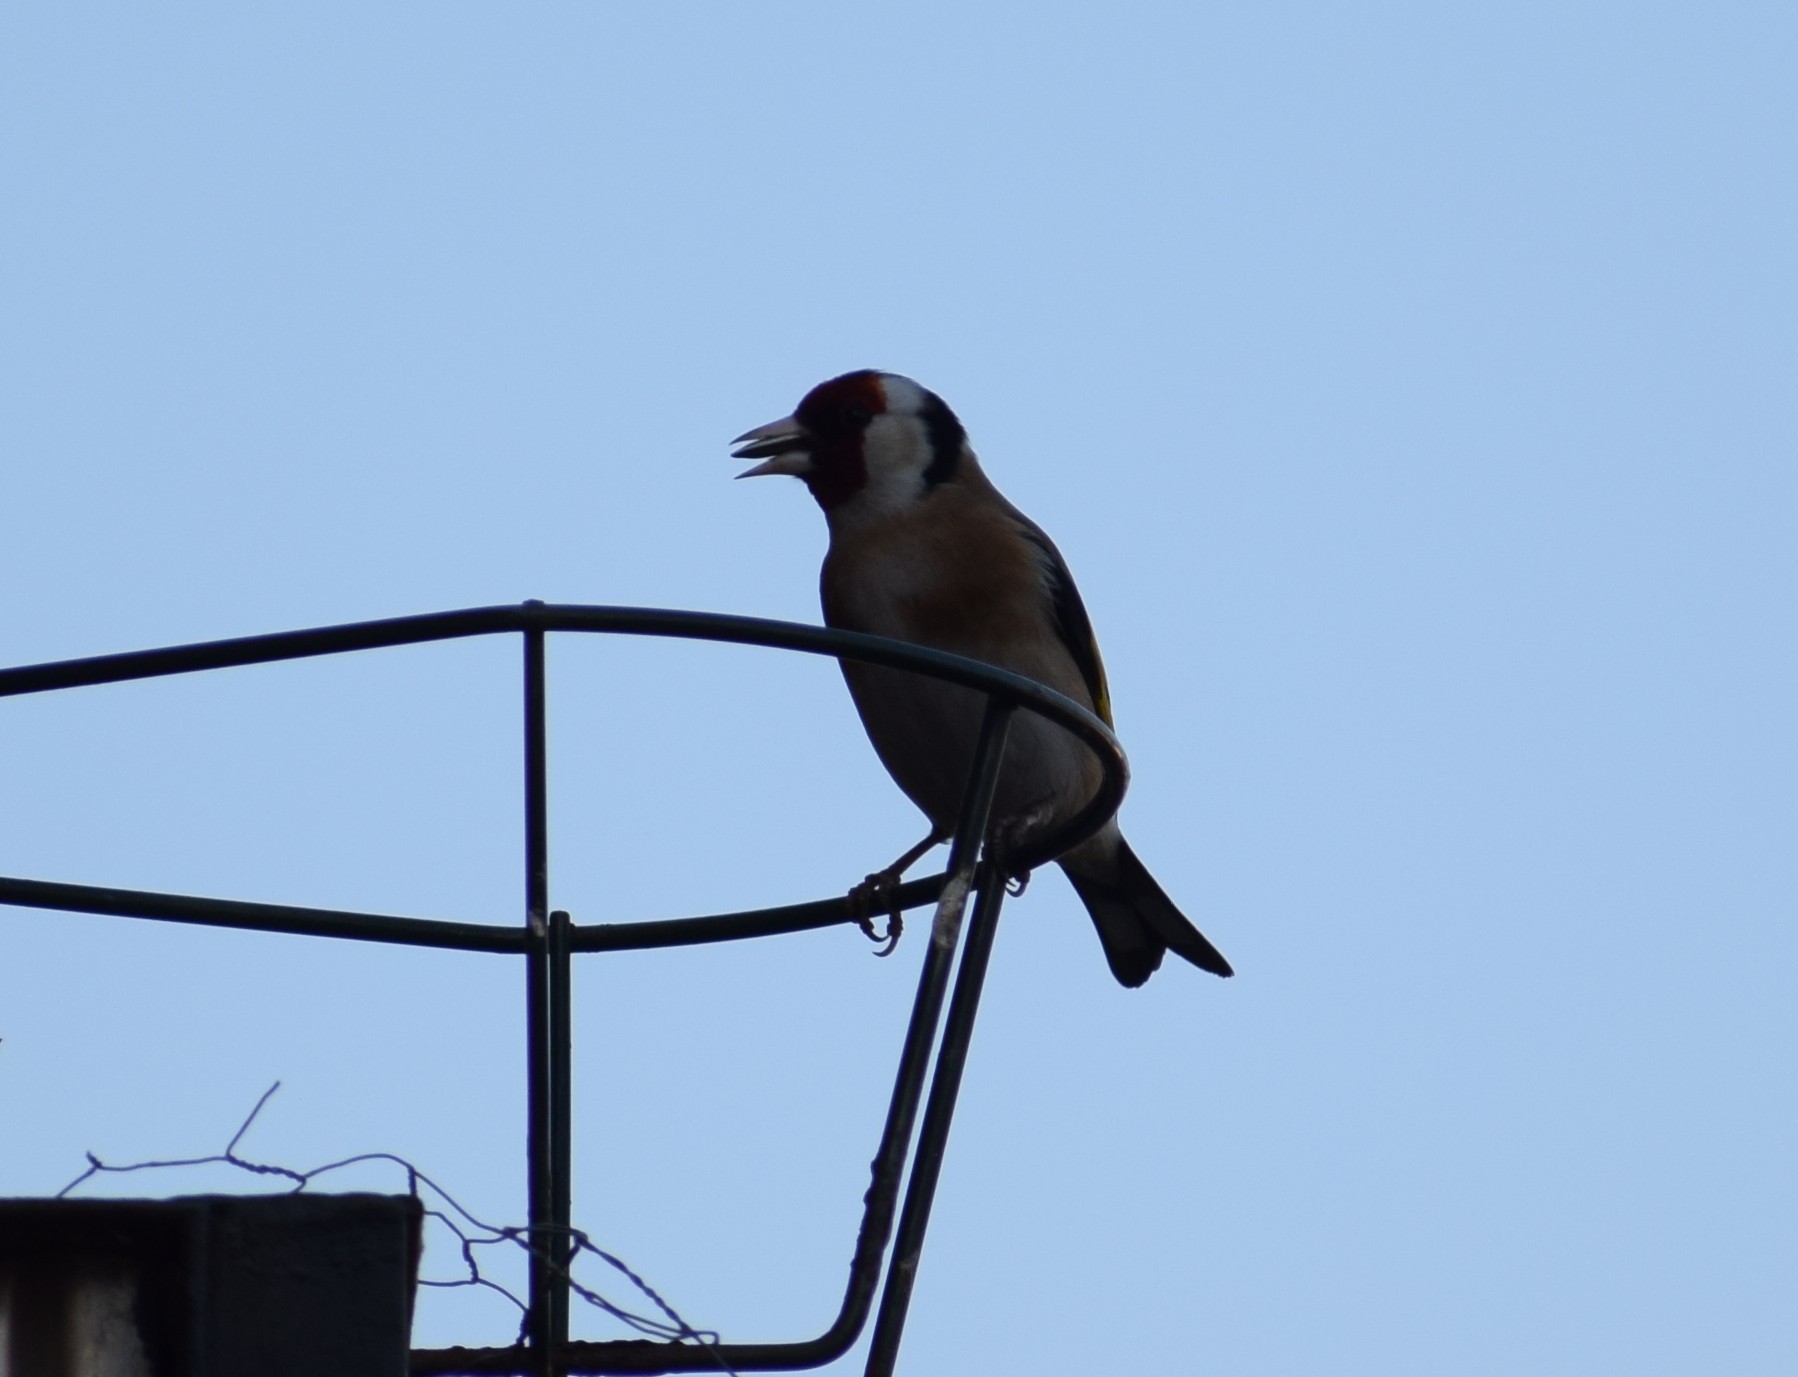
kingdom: Animalia
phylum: Chordata
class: Aves
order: Passeriformes
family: Fringillidae
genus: Carduelis
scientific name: Carduelis carduelis
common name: European goldfinch
